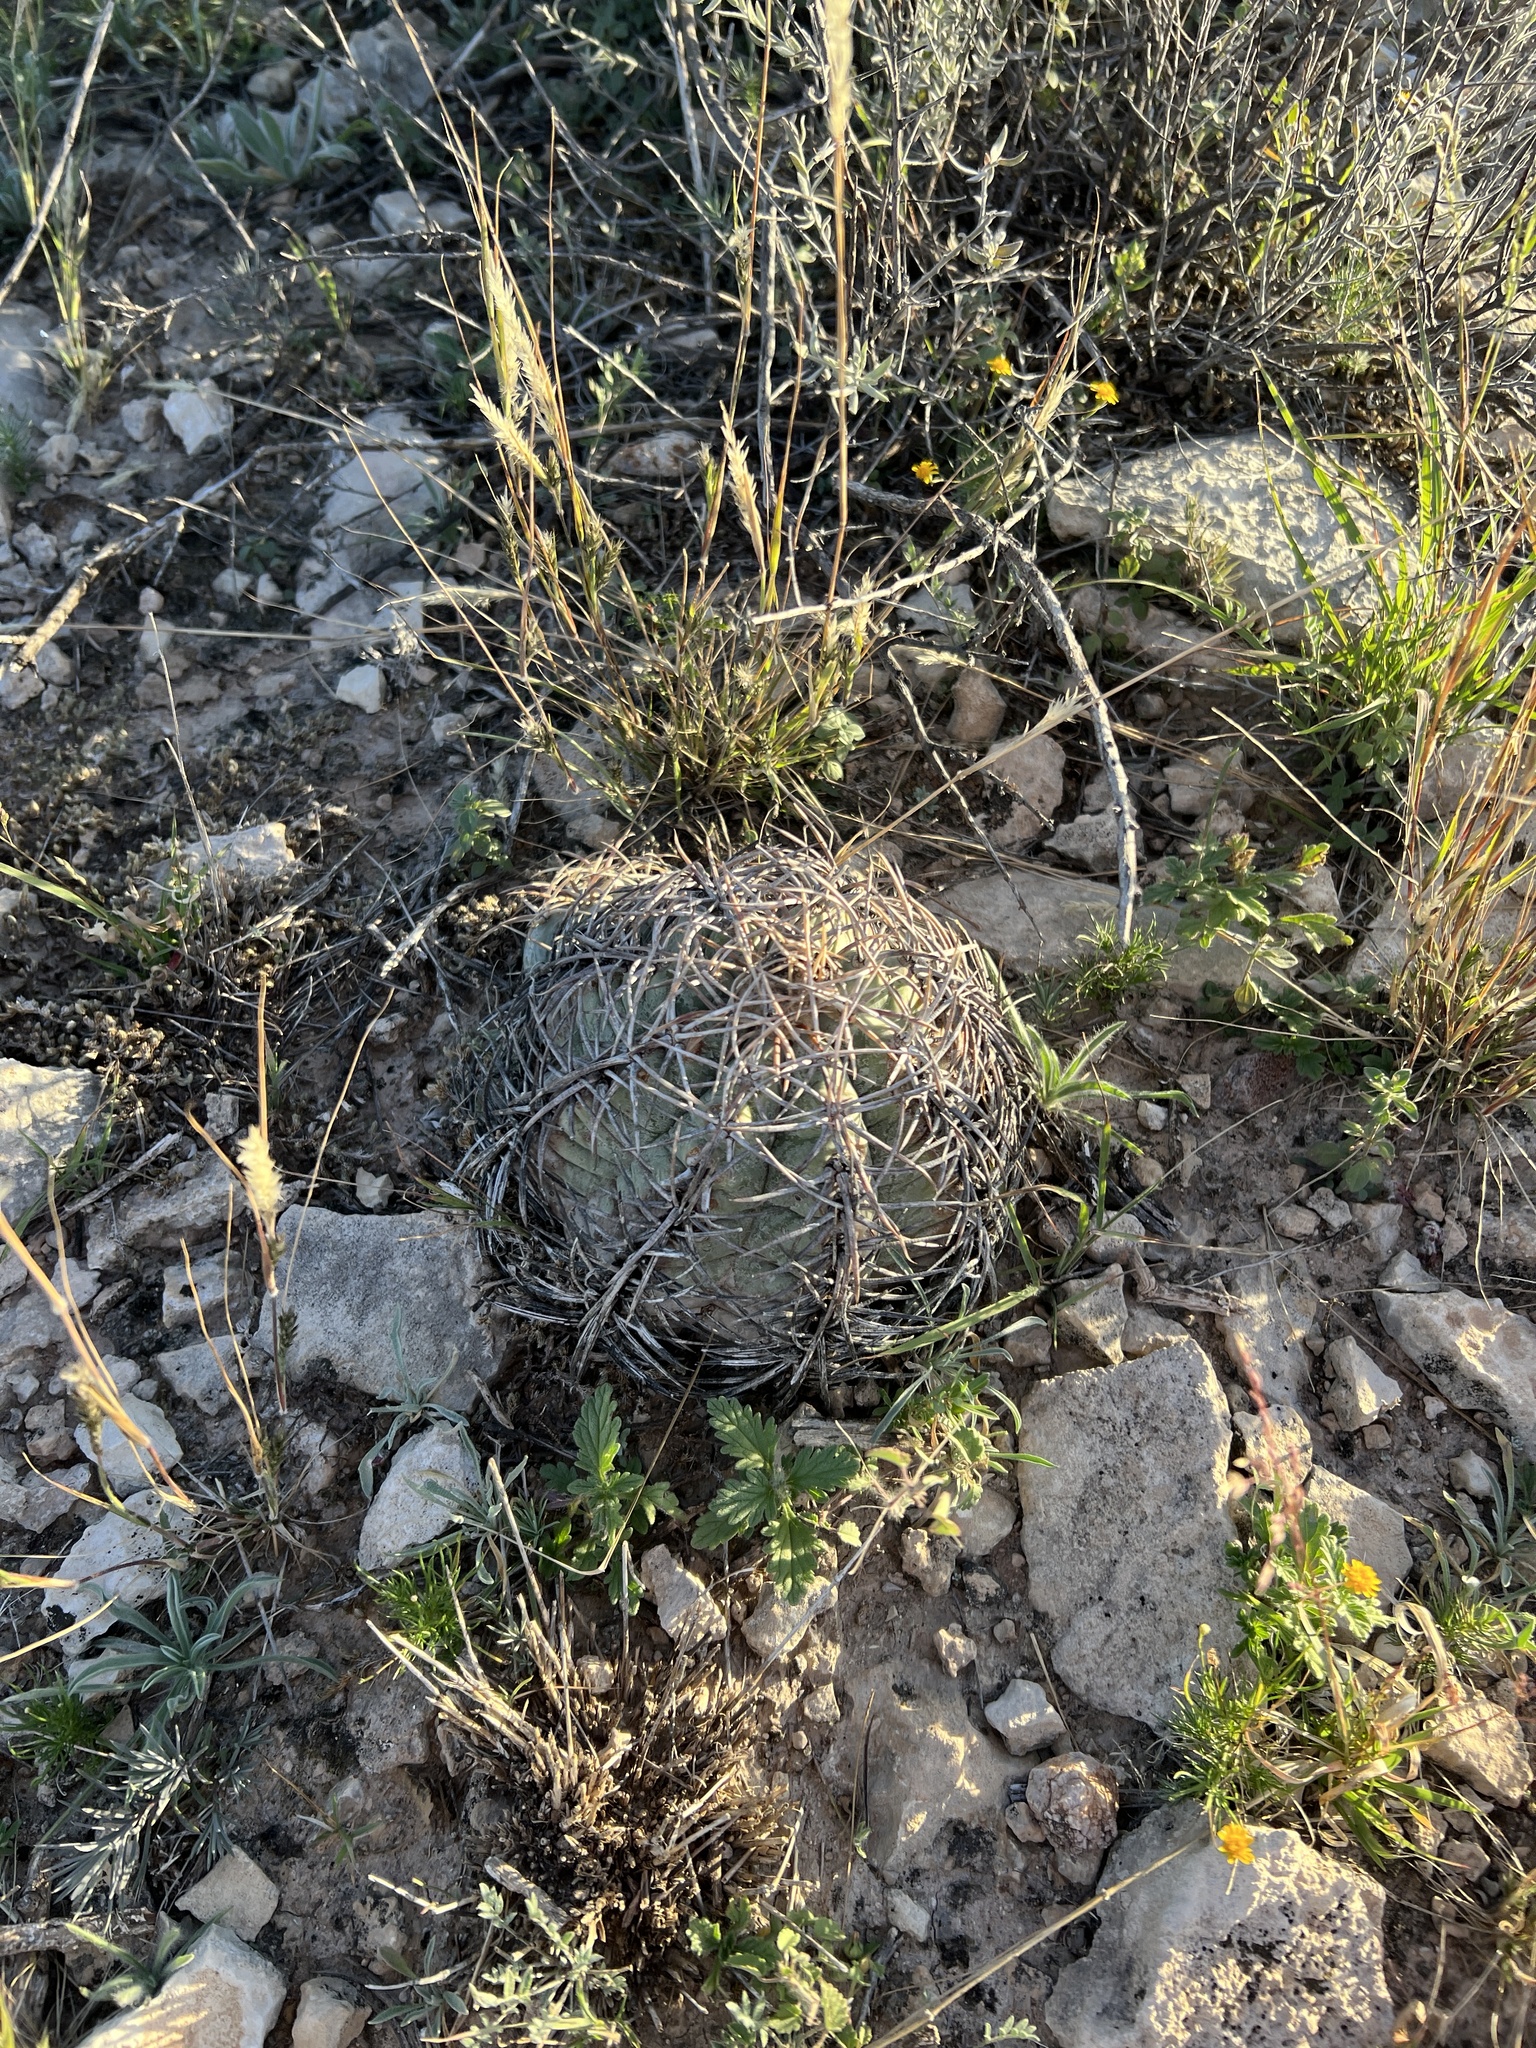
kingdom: Plantae
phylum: Tracheophyta
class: Magnoliopsida
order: Caryophyllales
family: Cactaceae
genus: Echinocactus
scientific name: Echinocactus horizonthalonius
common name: Devilshead
